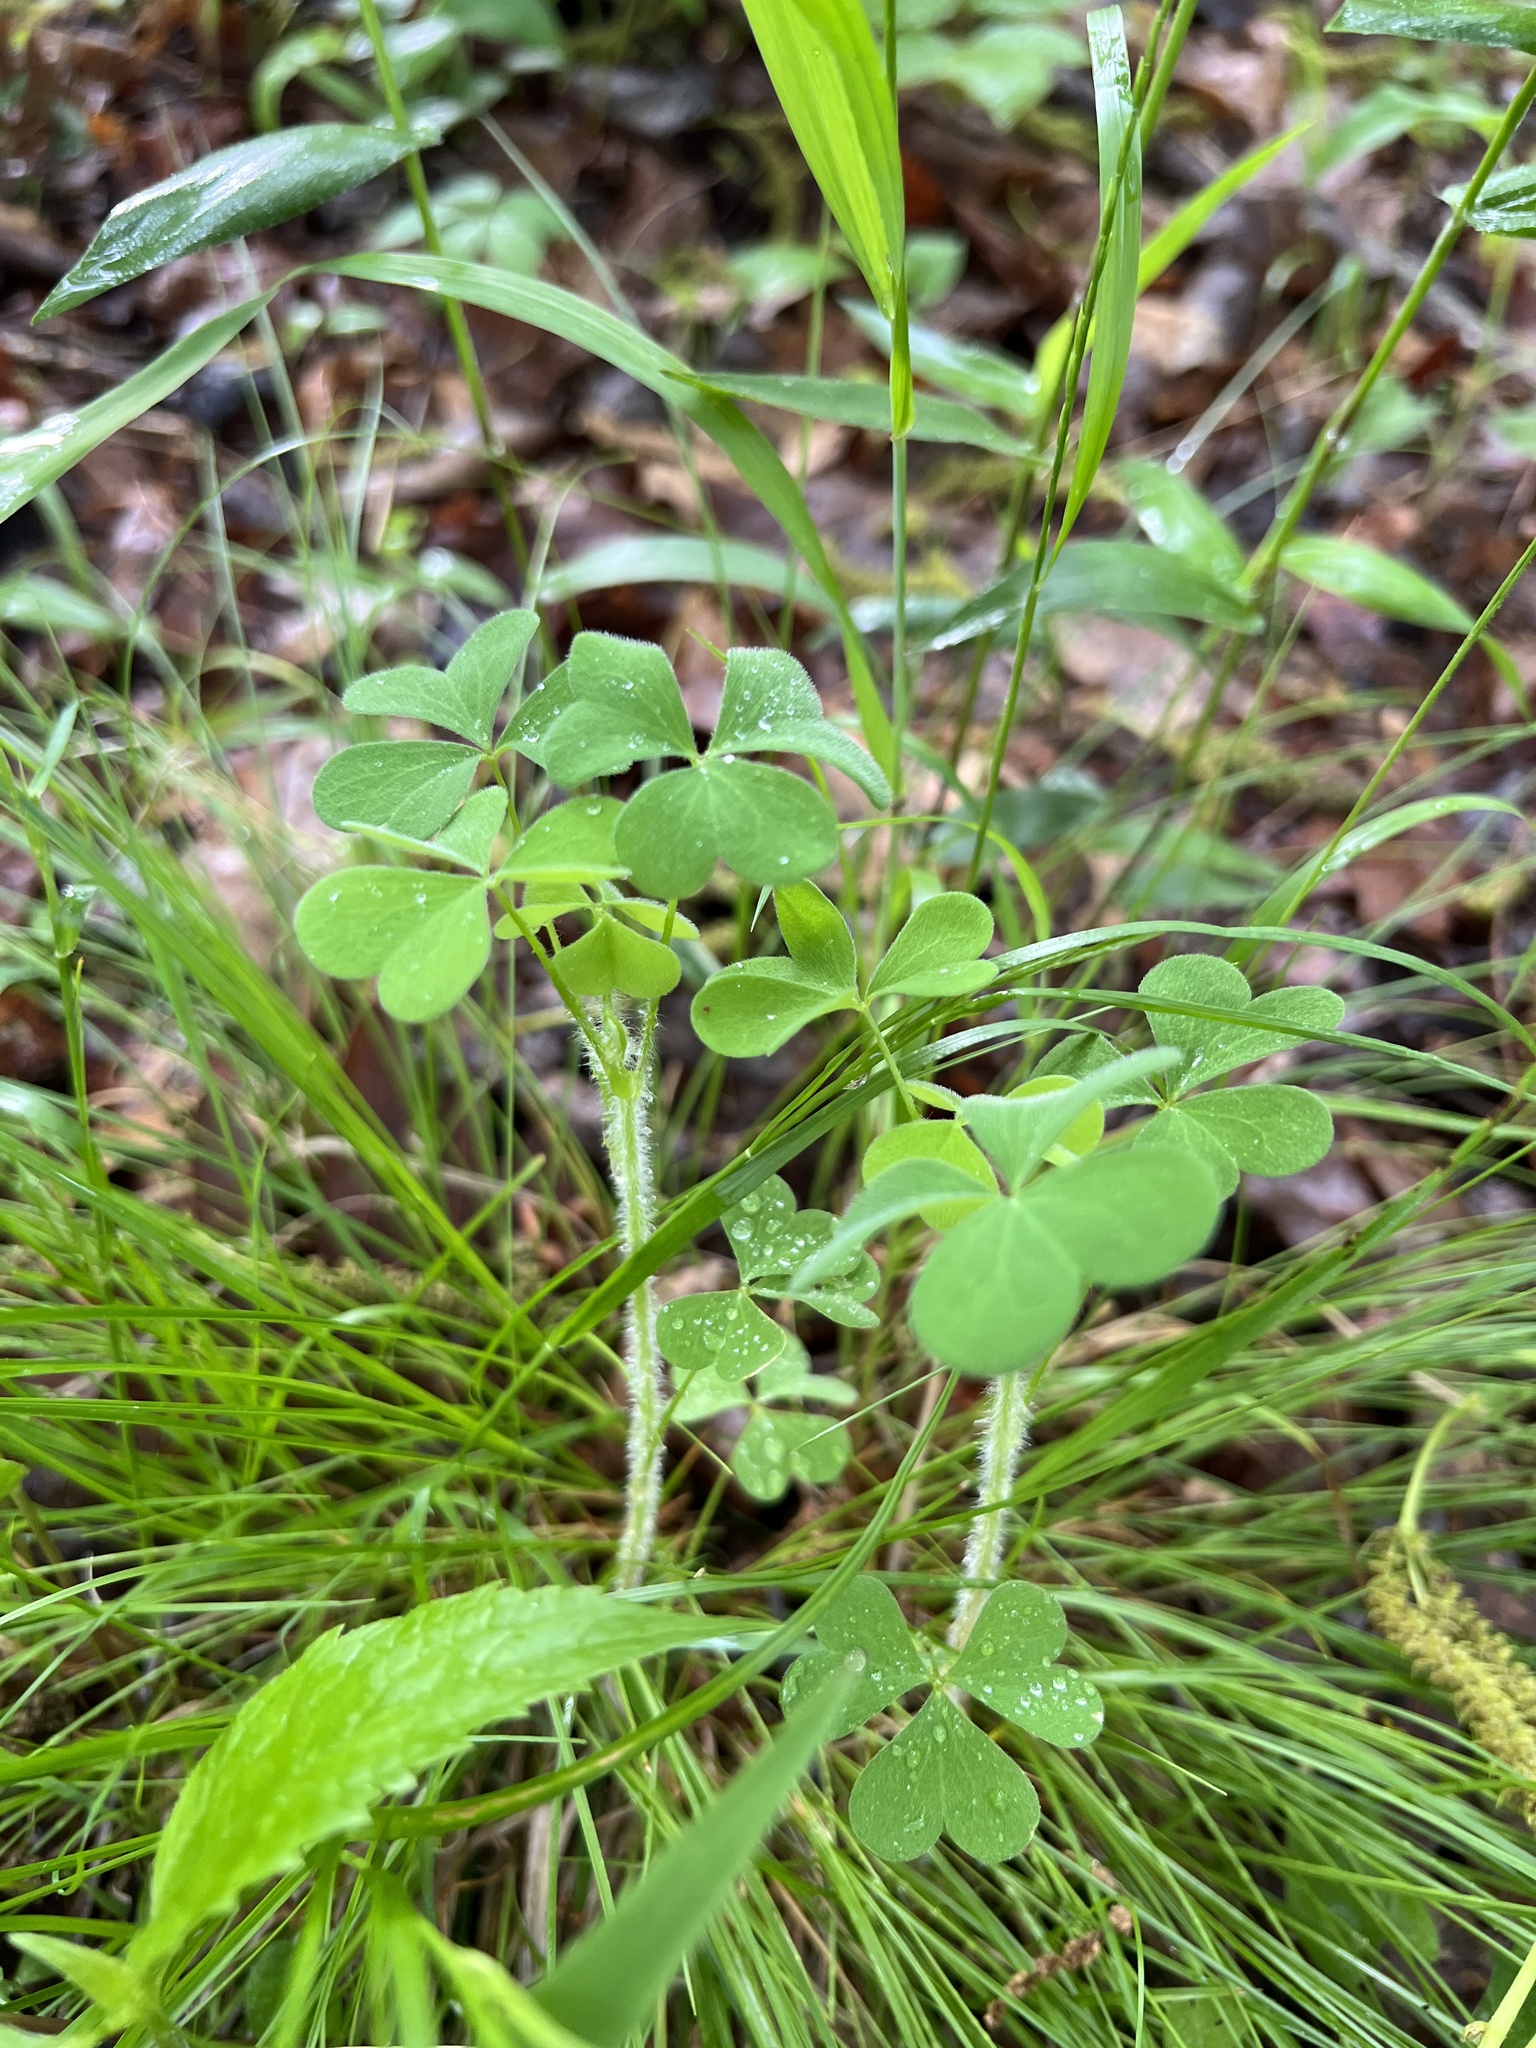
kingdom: Plantae
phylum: Tracheophyta
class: Magnoliopsida
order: Oxalidales
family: Oxalidaceae
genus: Oxalis
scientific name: Oxalis stricta
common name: Upright yellow-sorrel
